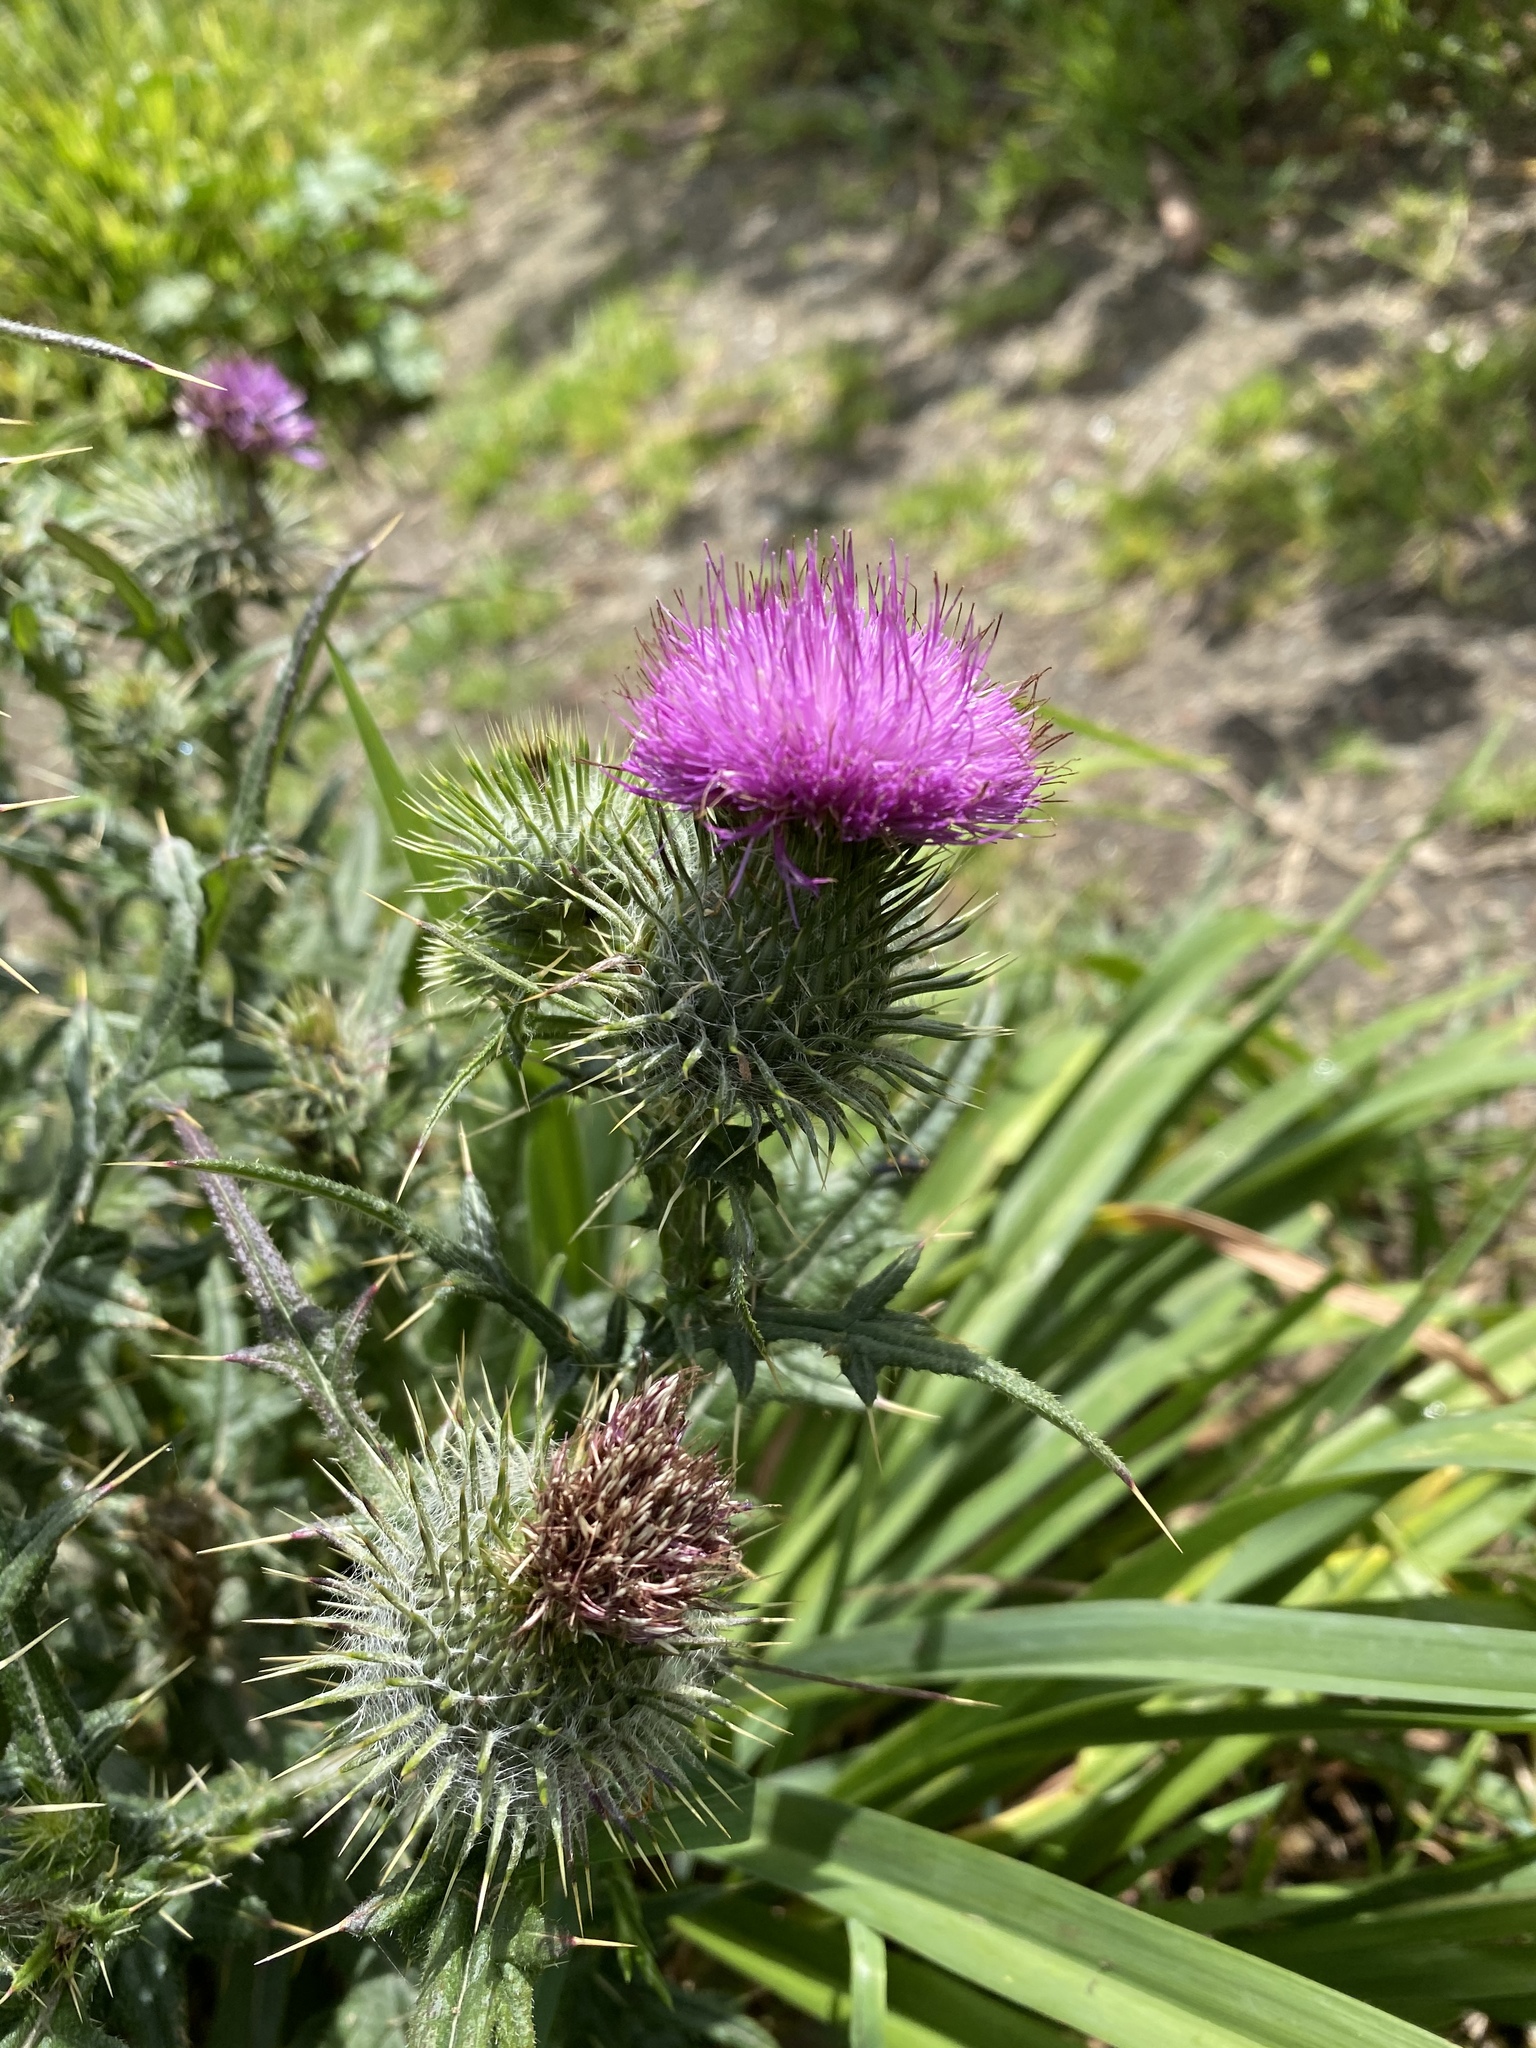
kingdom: Plantae
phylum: Tracheophyta
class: Magnoliopsida
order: Asterales
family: Asteraceae
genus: Cirsium
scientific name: Cirsium vulgare
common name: Bull thistle
